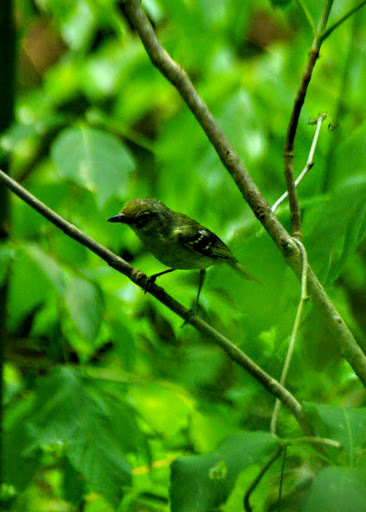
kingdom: Animalia
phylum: Chordata
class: Aves
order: Passeriformes
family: Vireonidae
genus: Vireo
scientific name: Vireo griseus
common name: White-eyed vireo
